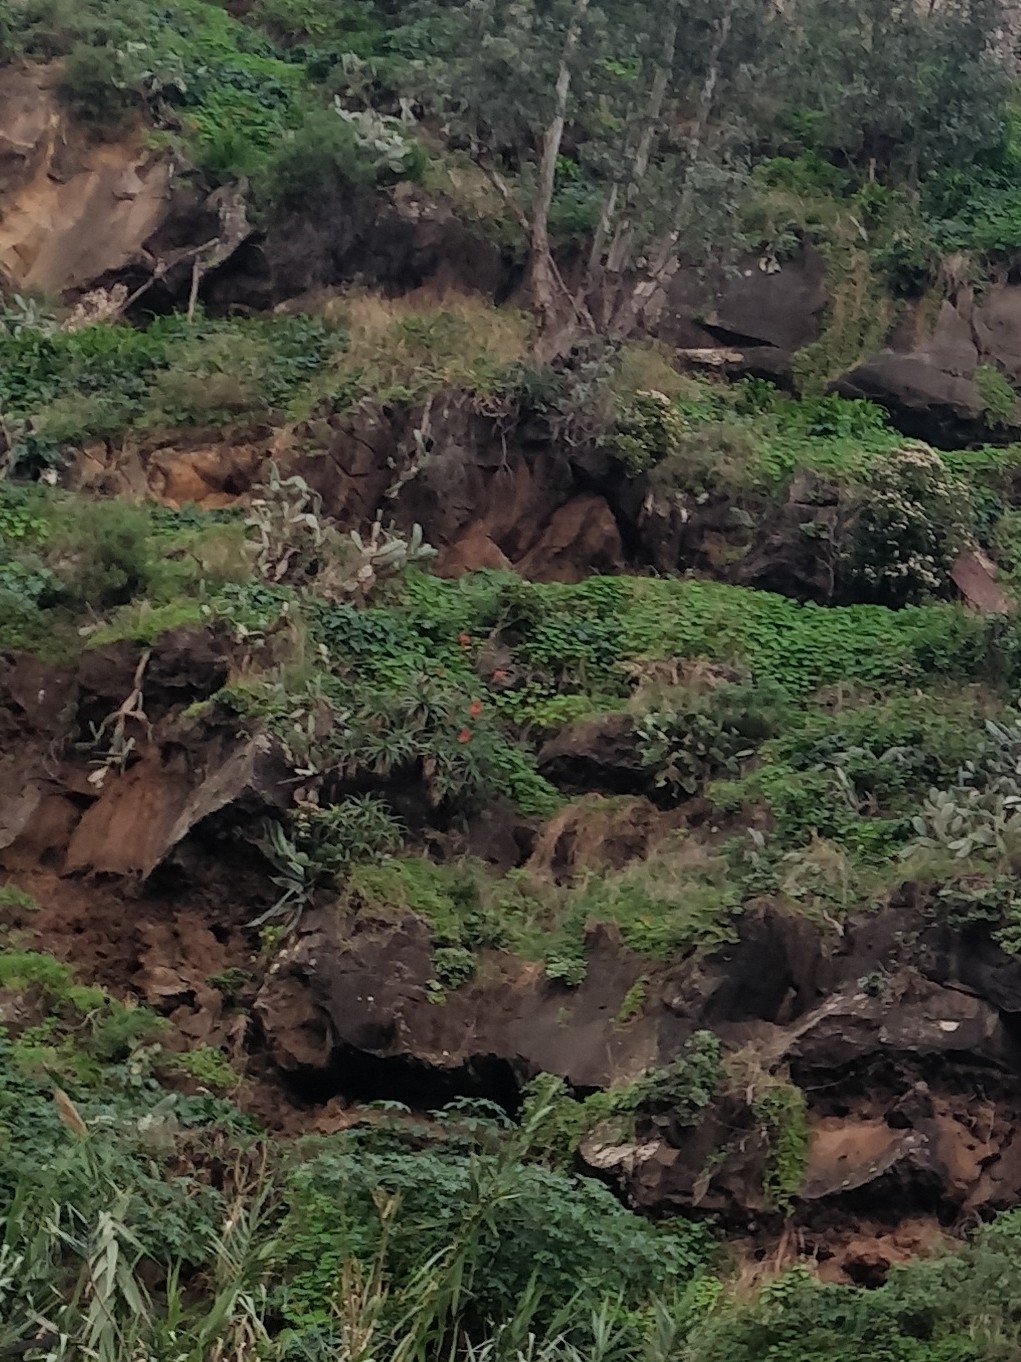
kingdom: Plantae
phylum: Tracheophyta
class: Liliopsida
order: Asparagales
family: Asphodelaceae
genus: Aloe
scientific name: Aloe arborescens
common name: Candelabra aloe
